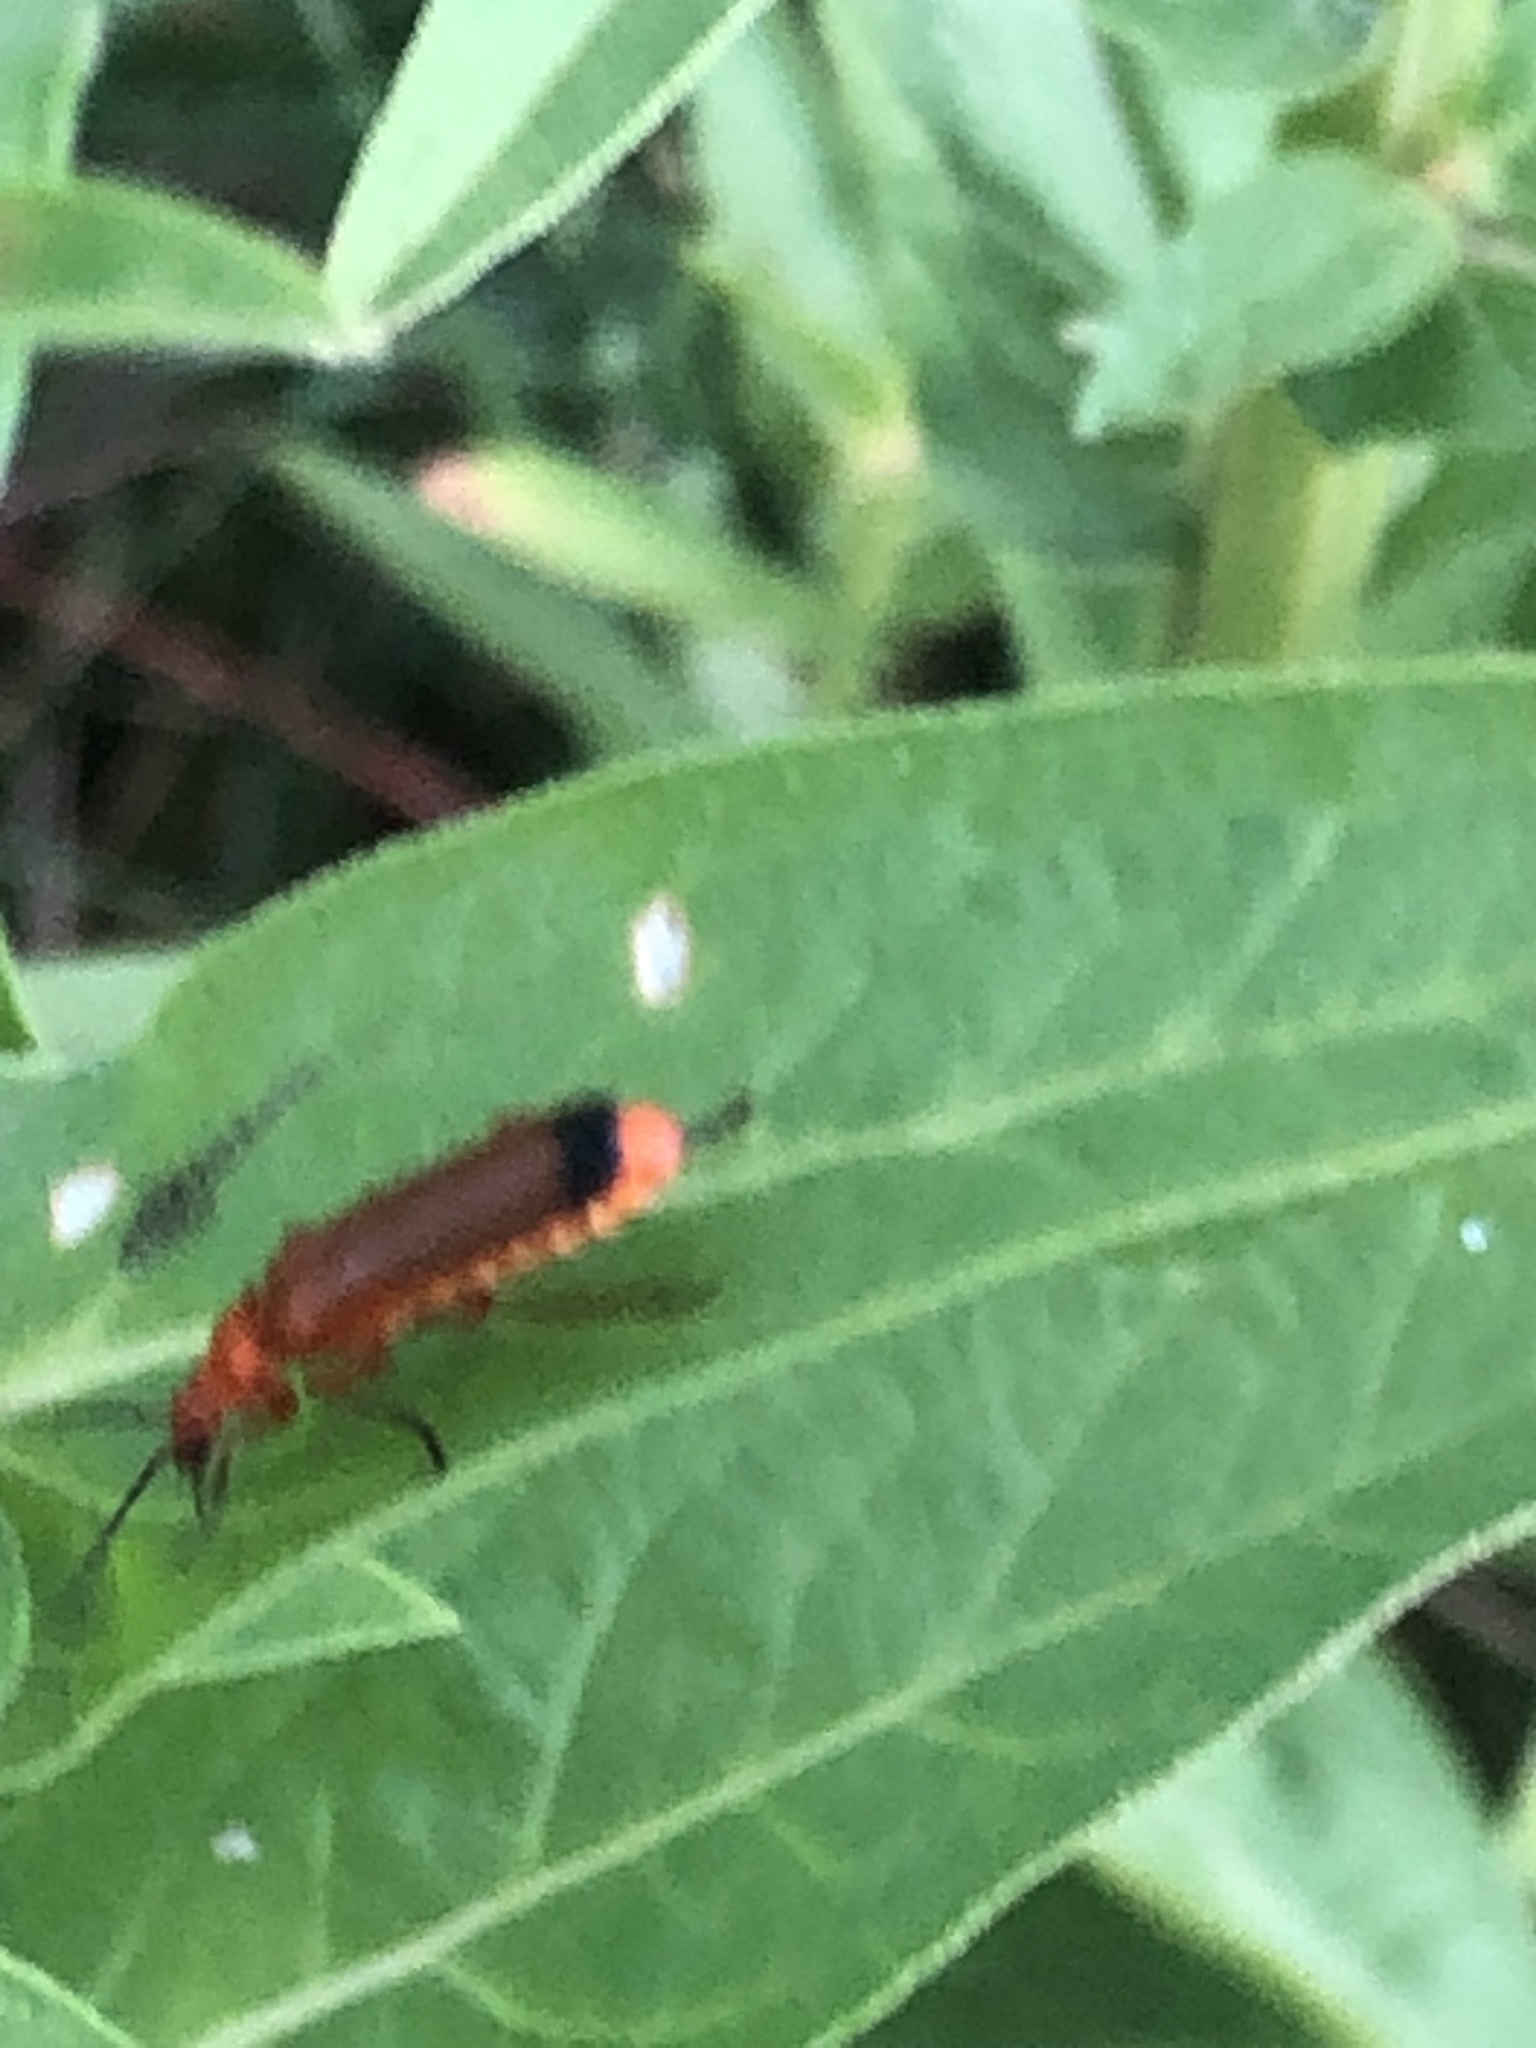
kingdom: Animalia
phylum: Arthropoda
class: Insecta
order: Coleoptera
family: Cantharidae
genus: Rhagonycha
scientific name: Rhagonycha fulva
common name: Common red soldier beetle
